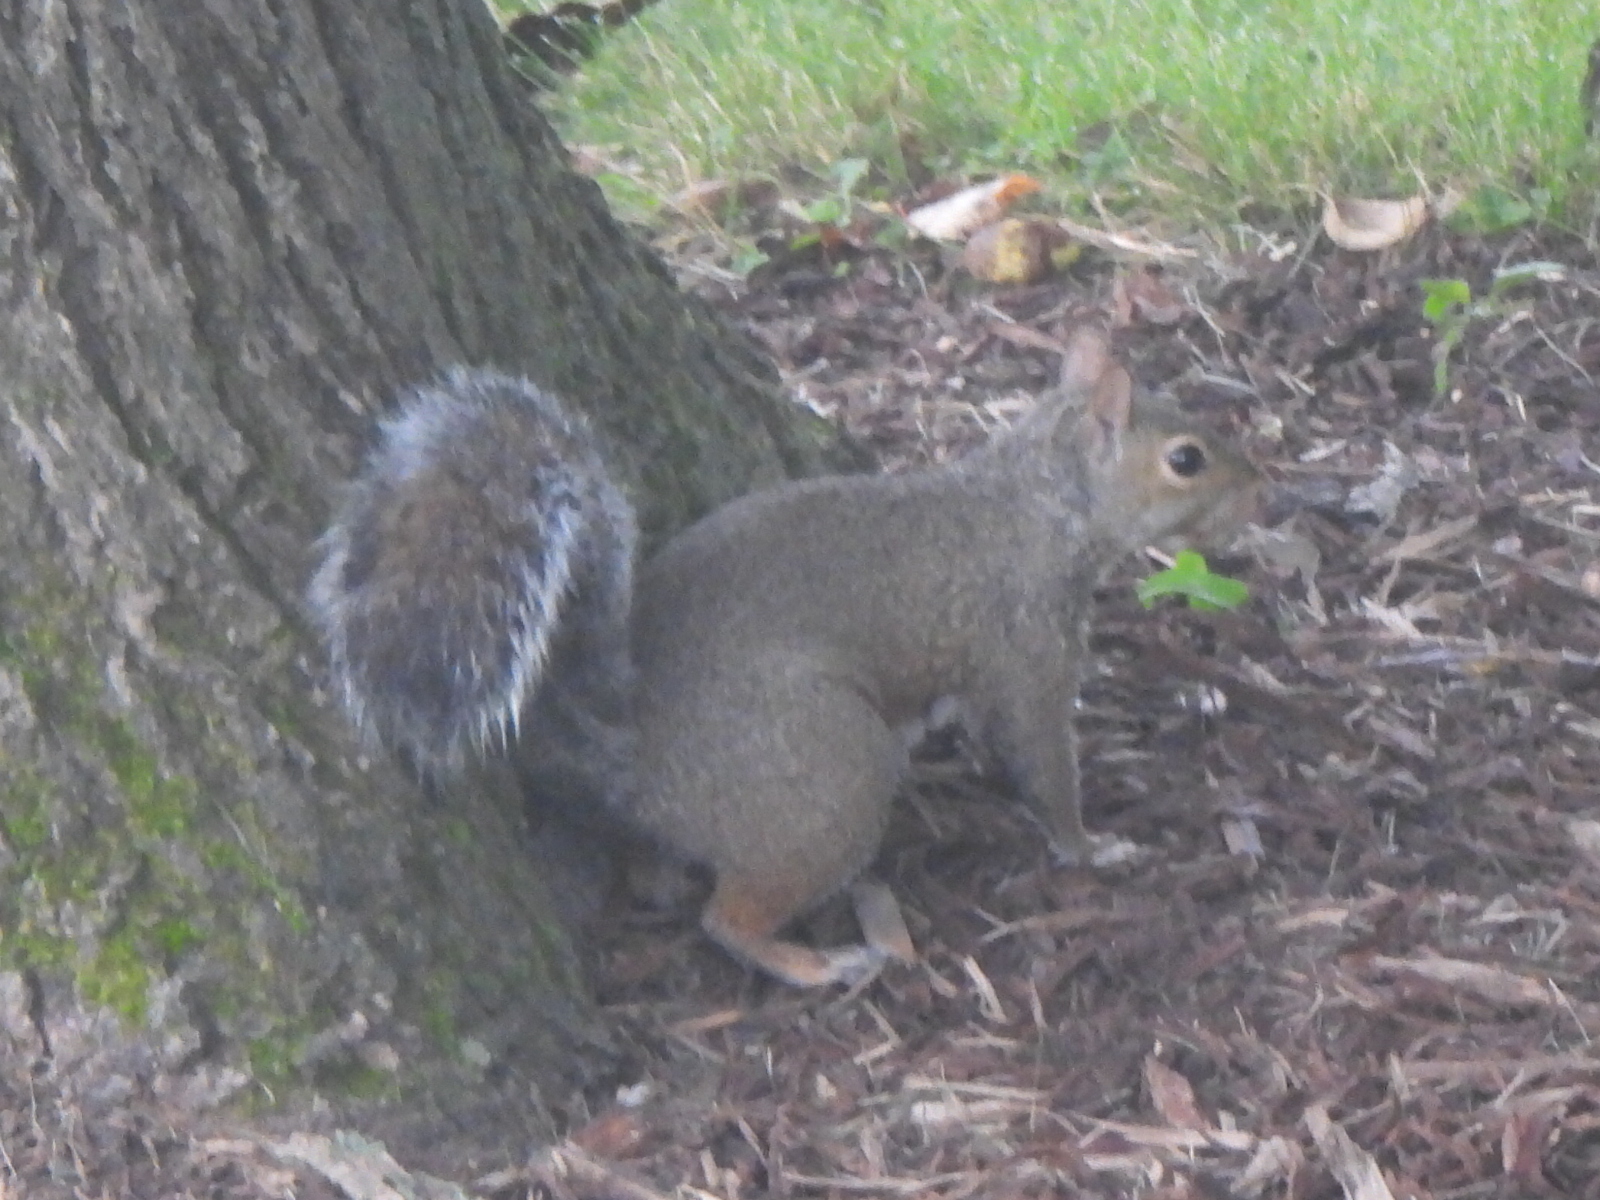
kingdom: Animalia
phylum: Chordata
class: Mammalia
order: Rodentia
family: Sciuridae
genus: Sciurus
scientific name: Sciurus carolinensis
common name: Eastern gray squirrel
